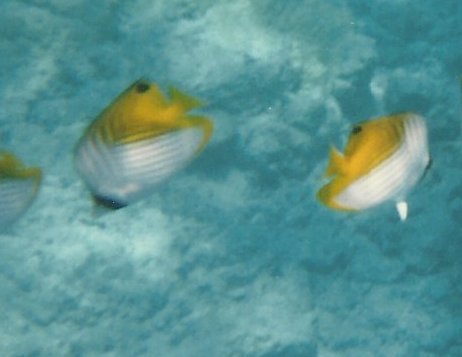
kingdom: Animalia
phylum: Chordata
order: Perciformes
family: Chaetodontidae
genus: Chaetodon
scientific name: Chaetodon auriga
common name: Threadfin butterflyfish
